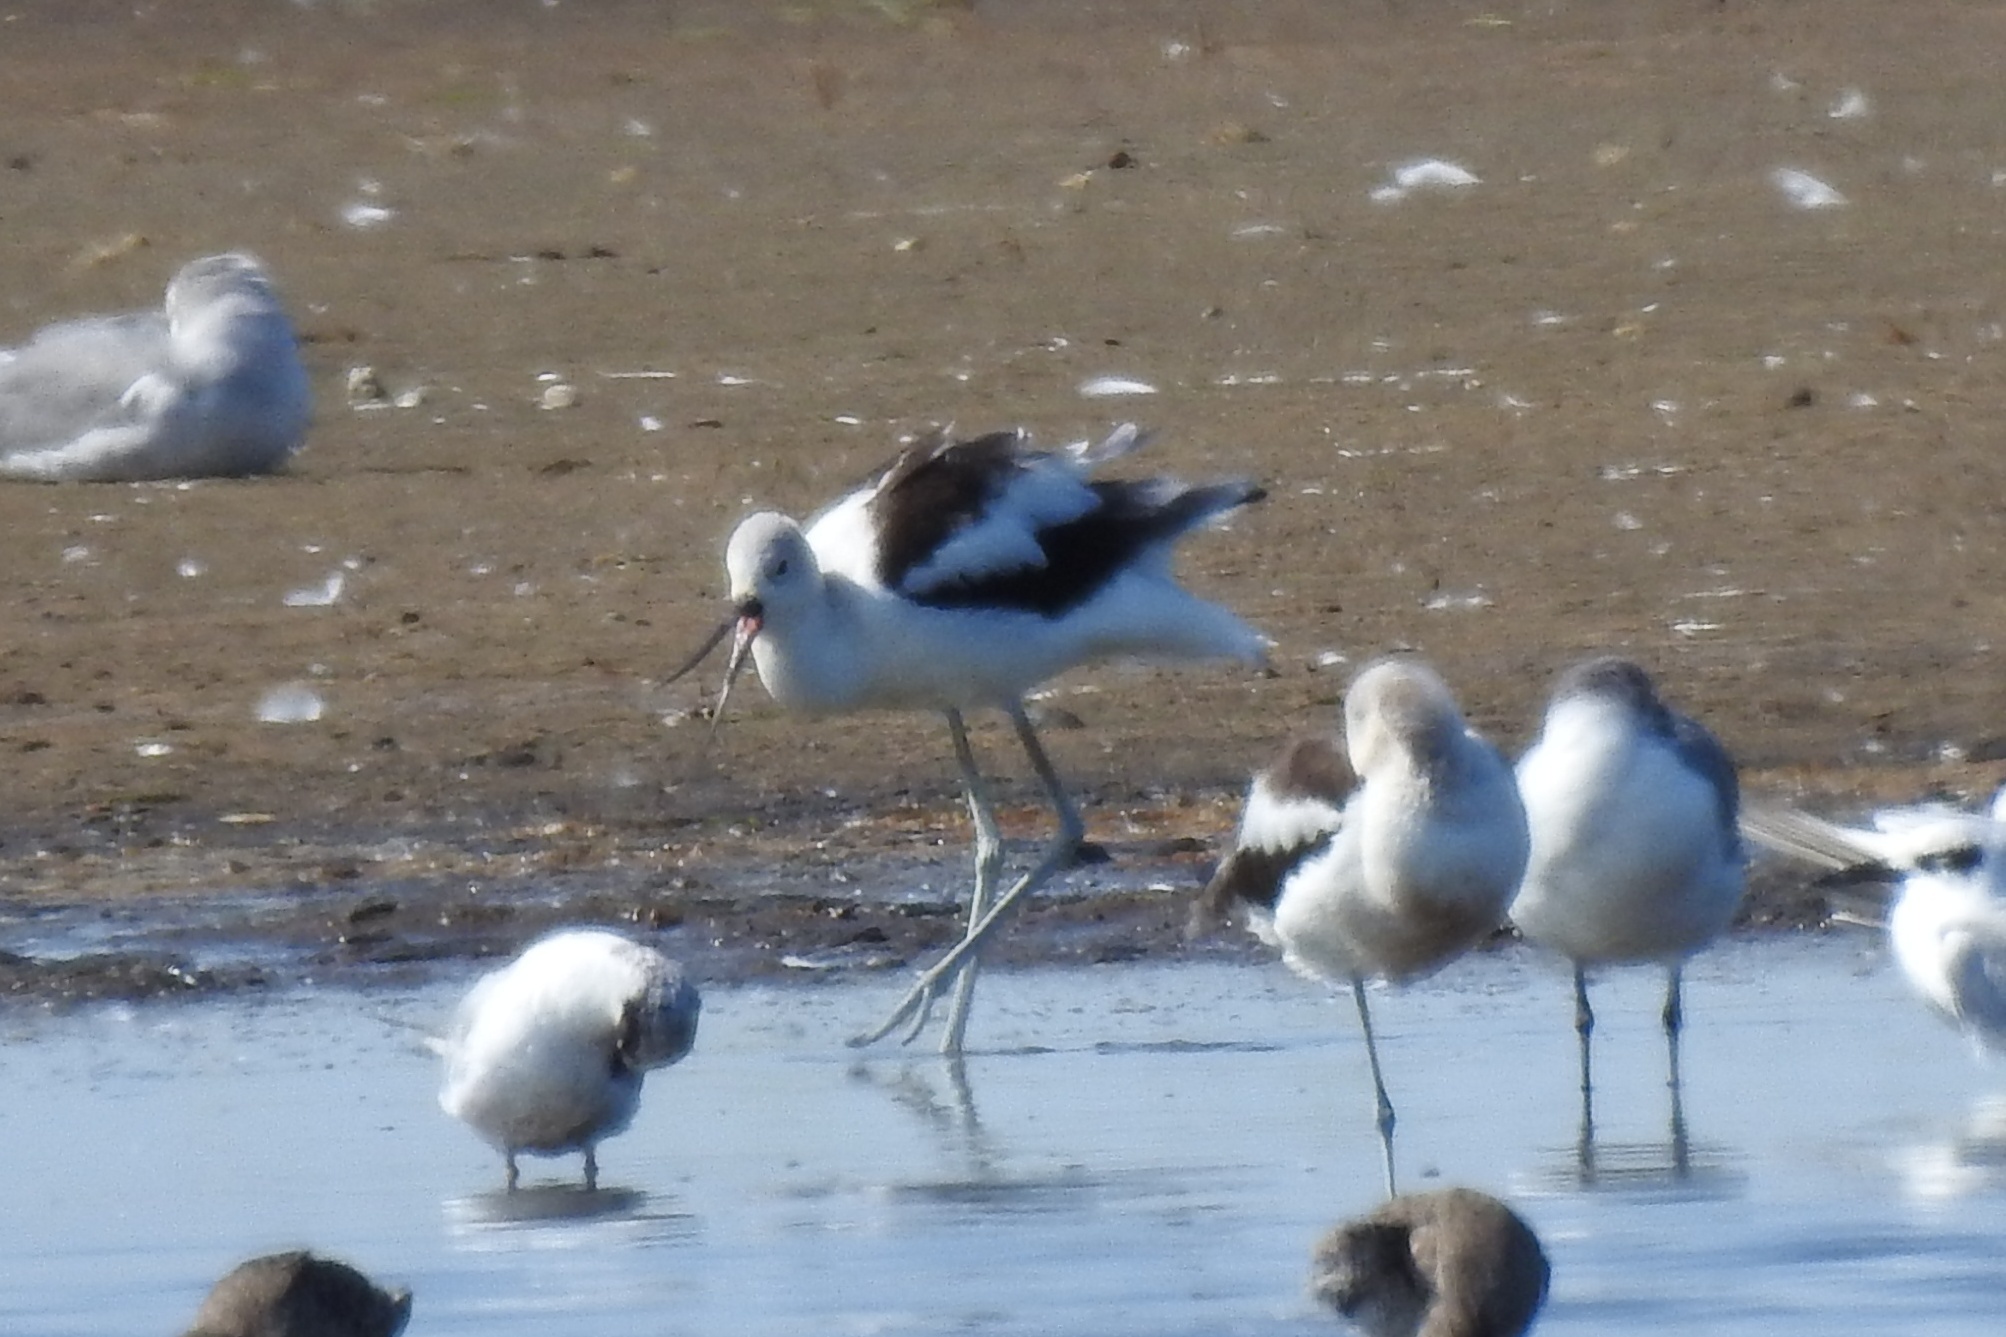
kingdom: Animalia
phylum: Chordata
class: Aves
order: Charadriiformes
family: Recurvirostridae
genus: Recurvirostra
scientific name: Recurvirostra americana
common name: American avocet
